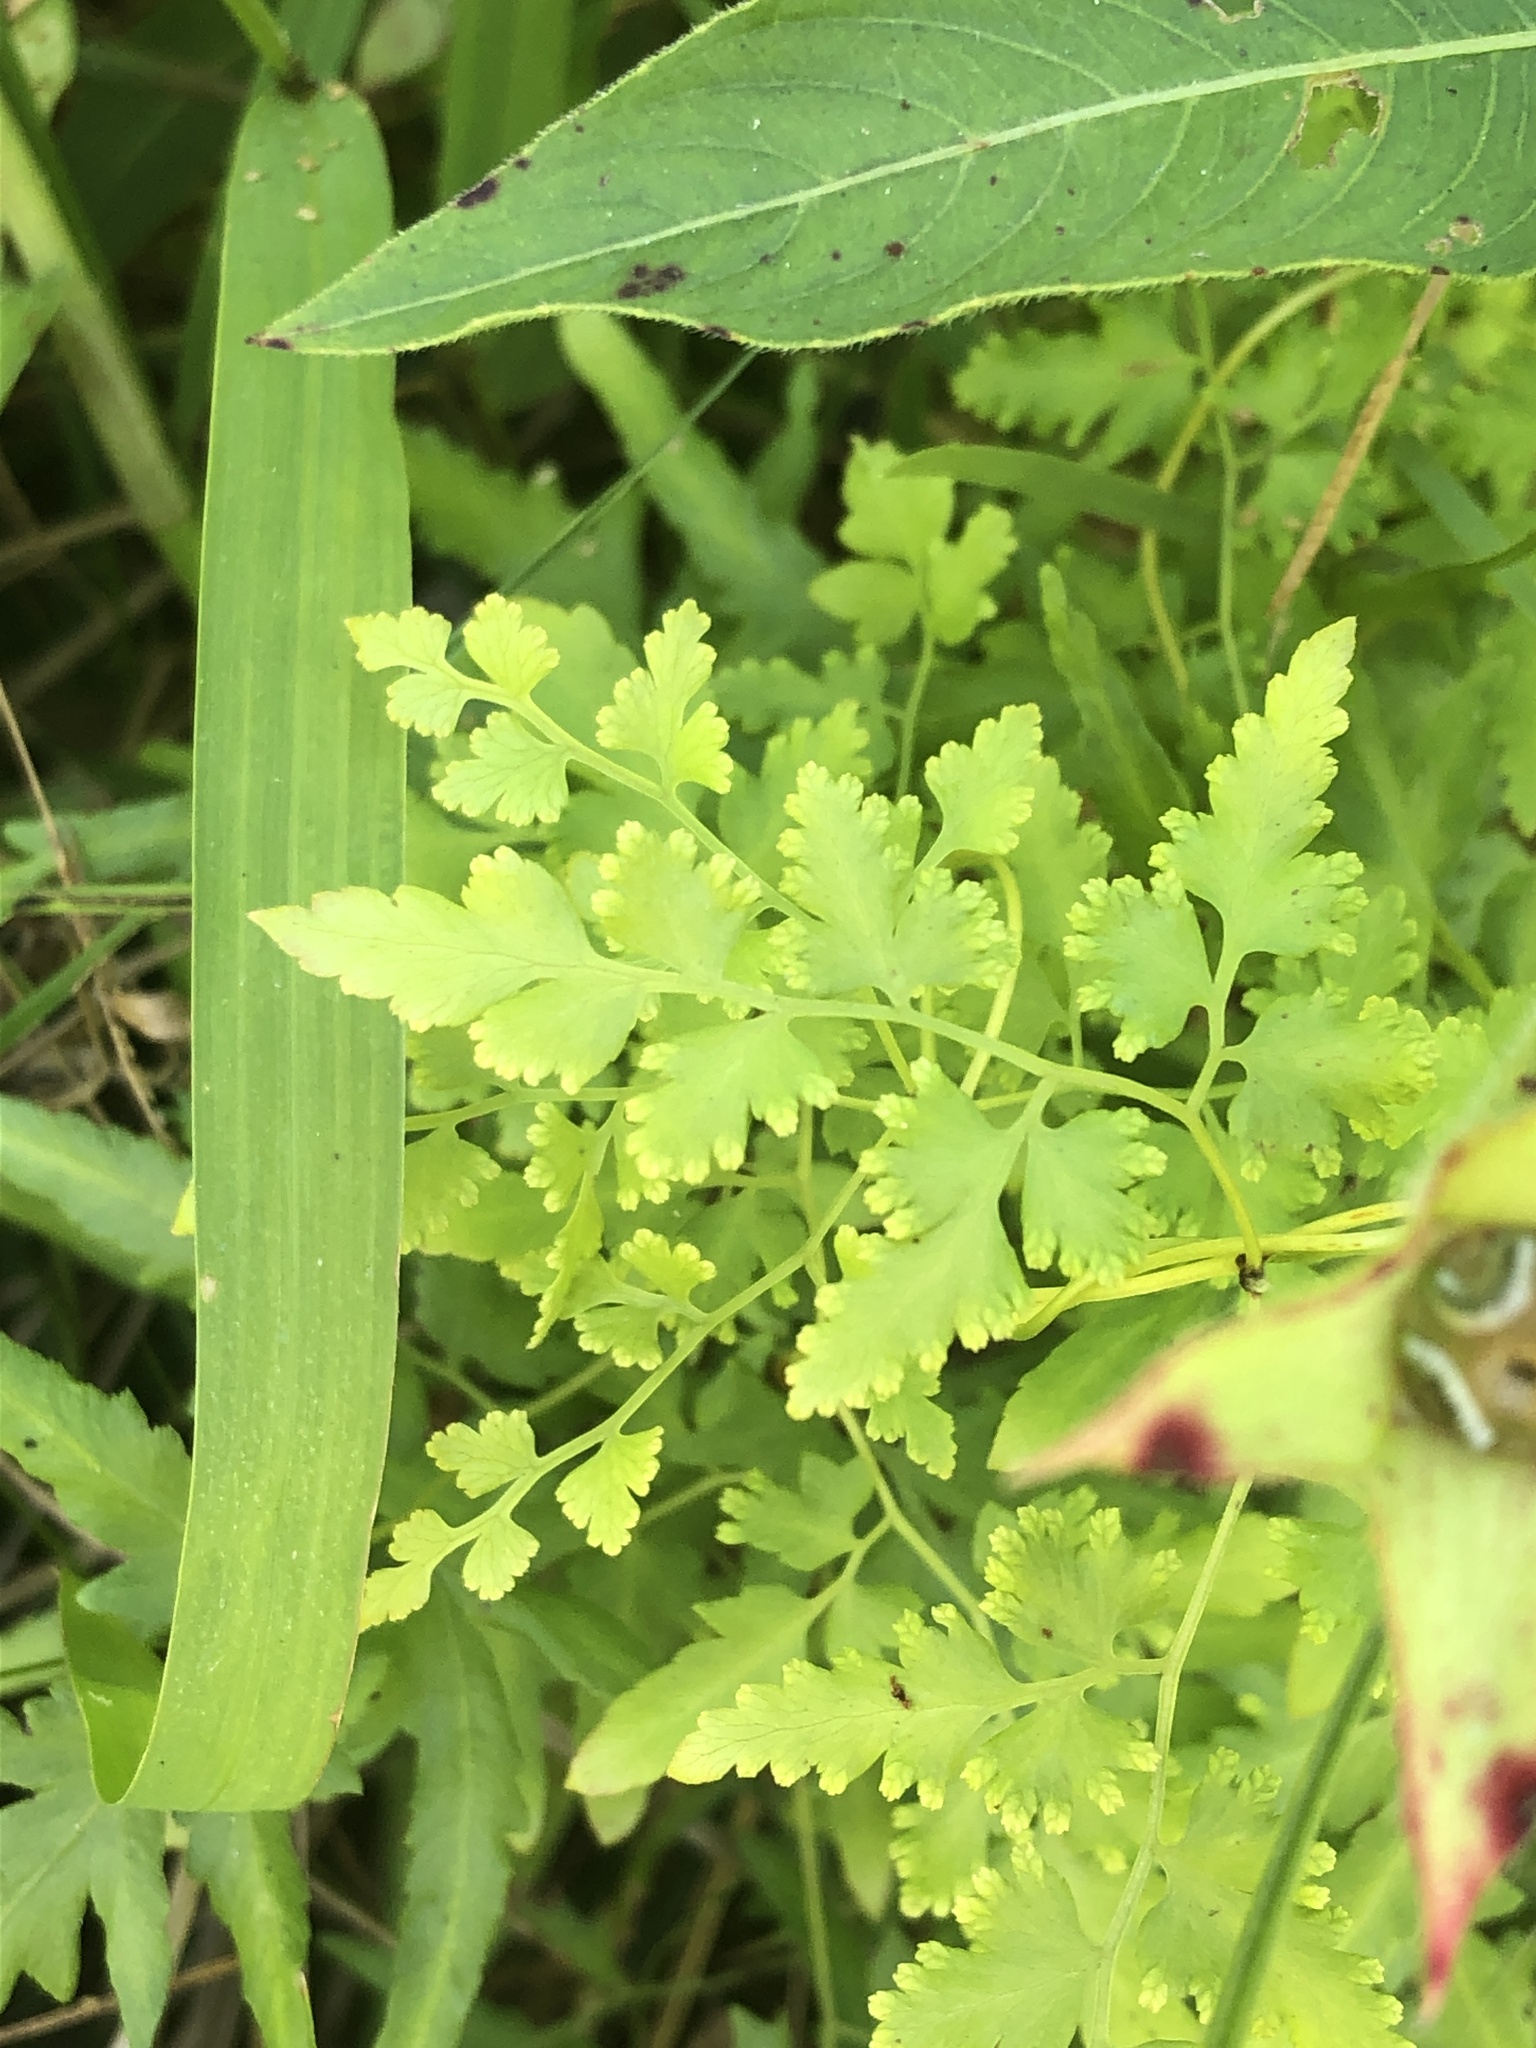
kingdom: Plantae
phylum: Tracheophyta
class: Polypodiopsida
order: Schizaeales
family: Lygodiaceae
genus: Lygodium
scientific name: Lygodium japonicum
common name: Japanese climbing fern
